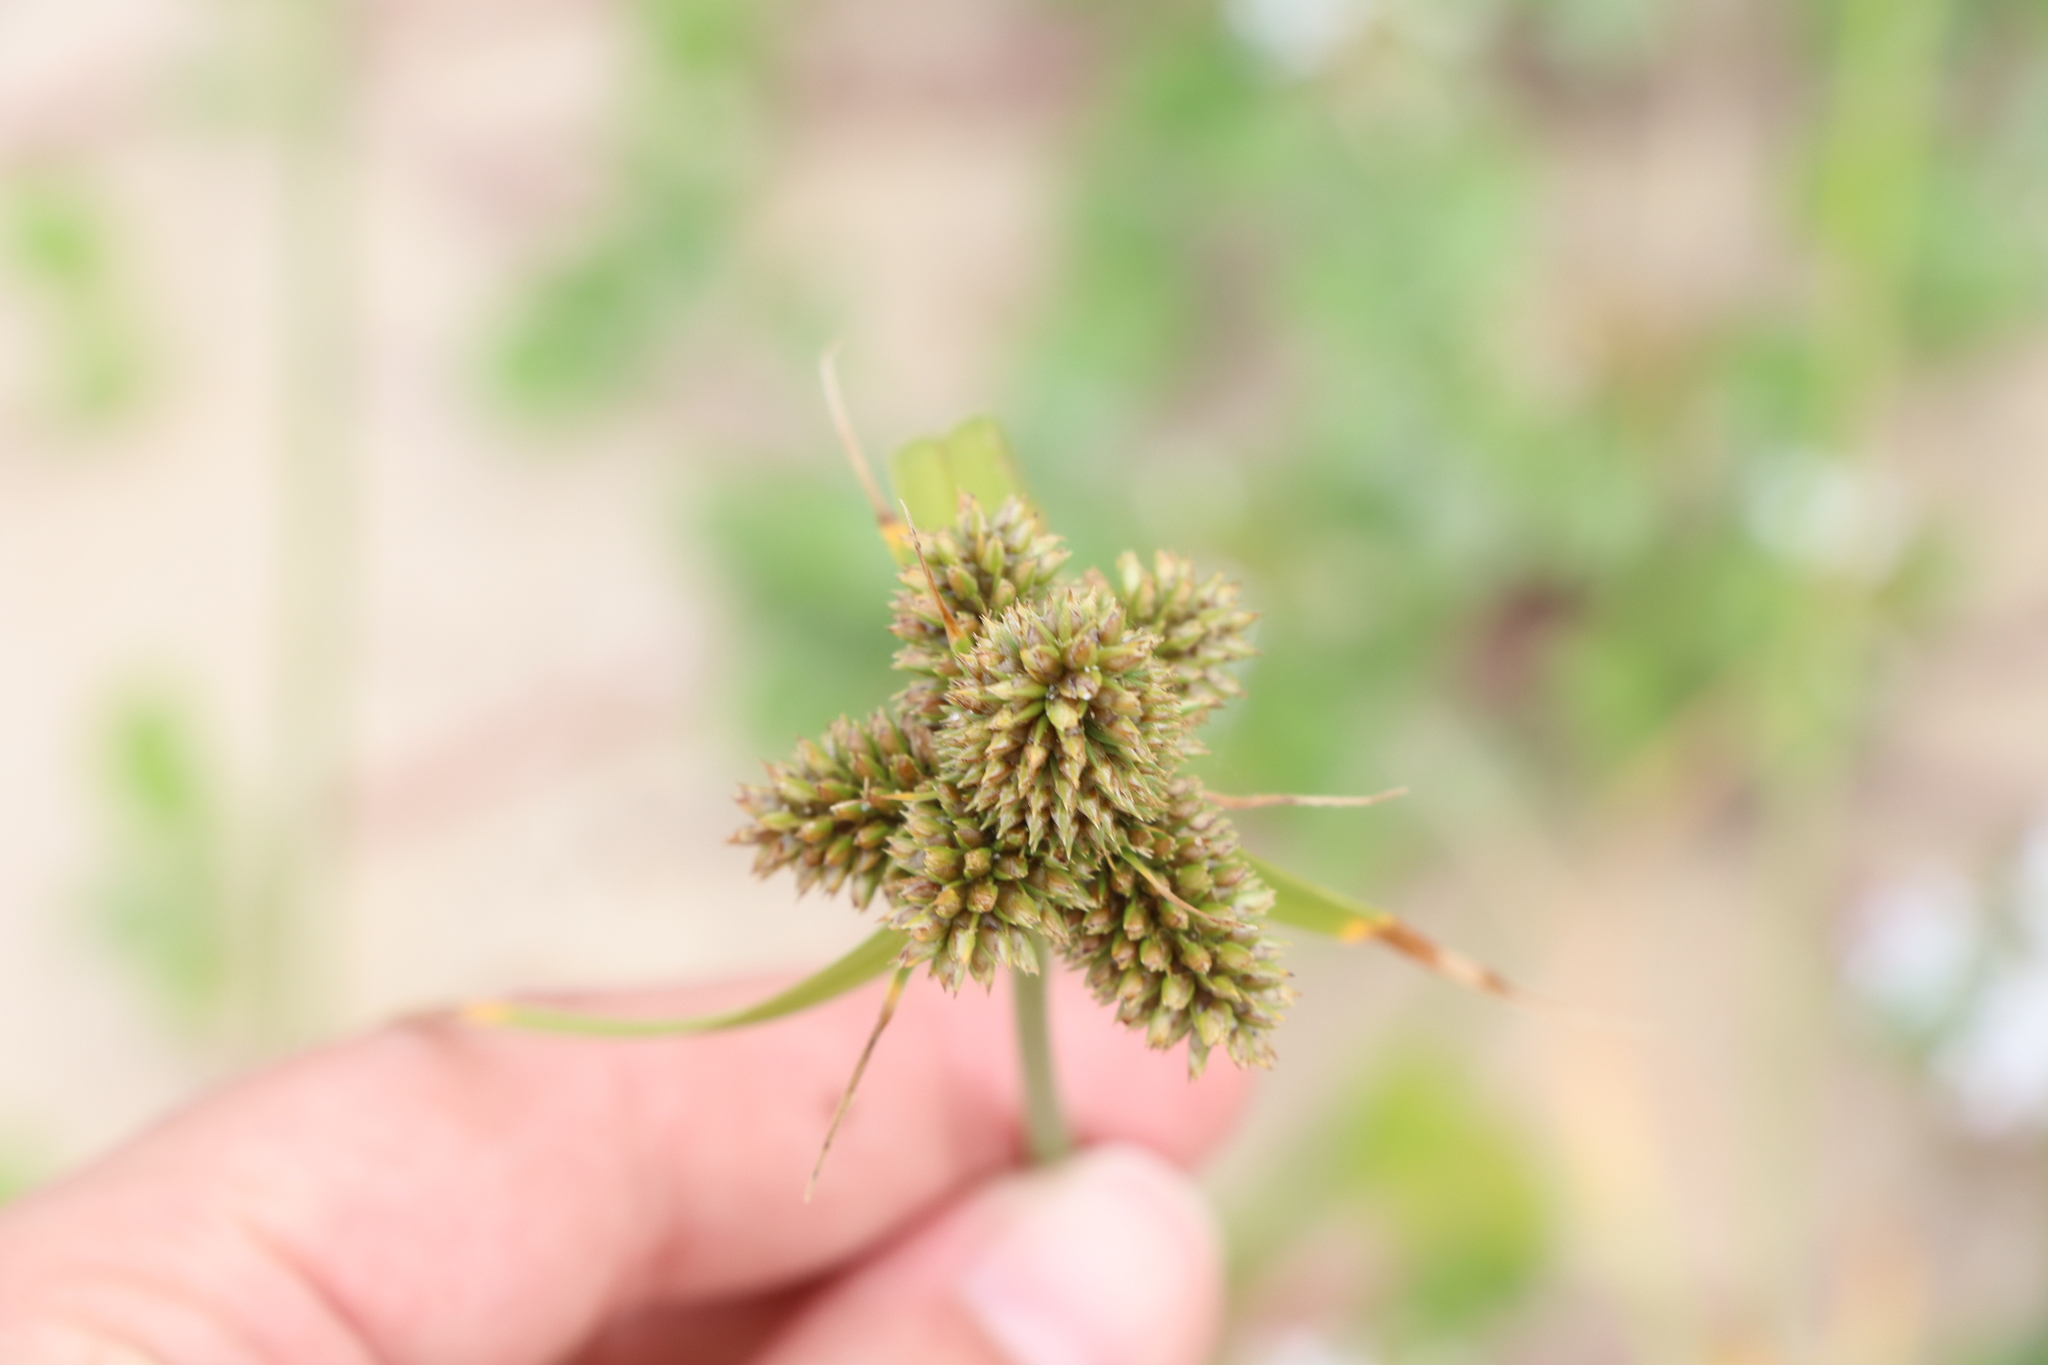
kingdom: Plantae
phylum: Tracheophyta
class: Liliopsida
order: Poales
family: Cyperaceae
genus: Cyperus
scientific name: Cyperus aggregatus
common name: Inflatedscale flatsedge
